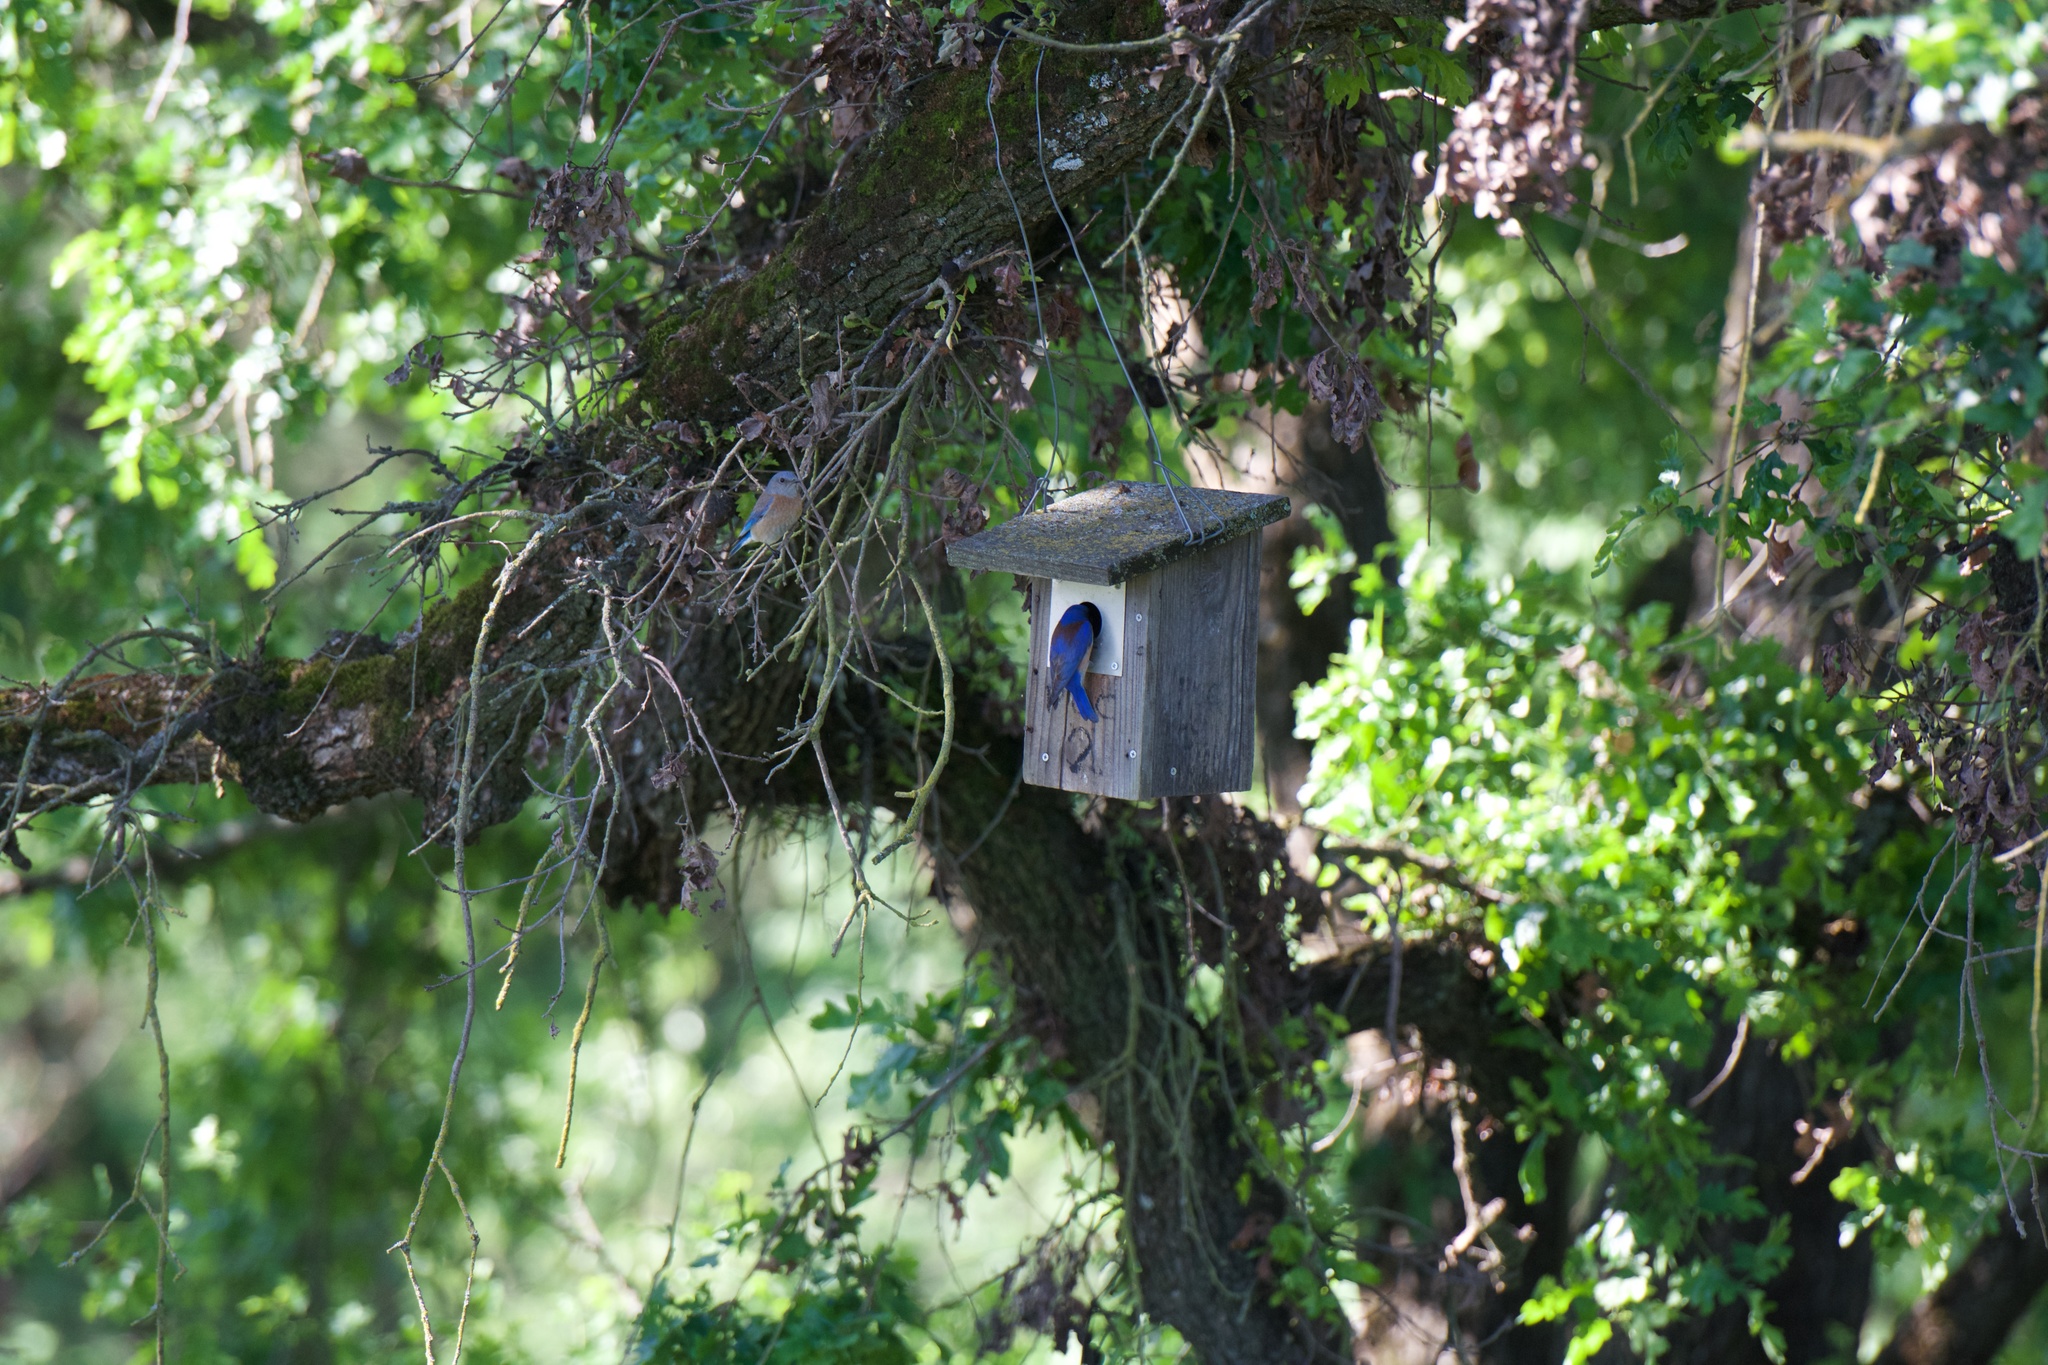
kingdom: Animalia
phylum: Chordata
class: Aves
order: Passeriformes
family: Turdidae
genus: Sialia
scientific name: Sialia mexicana
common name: Western bluebird
